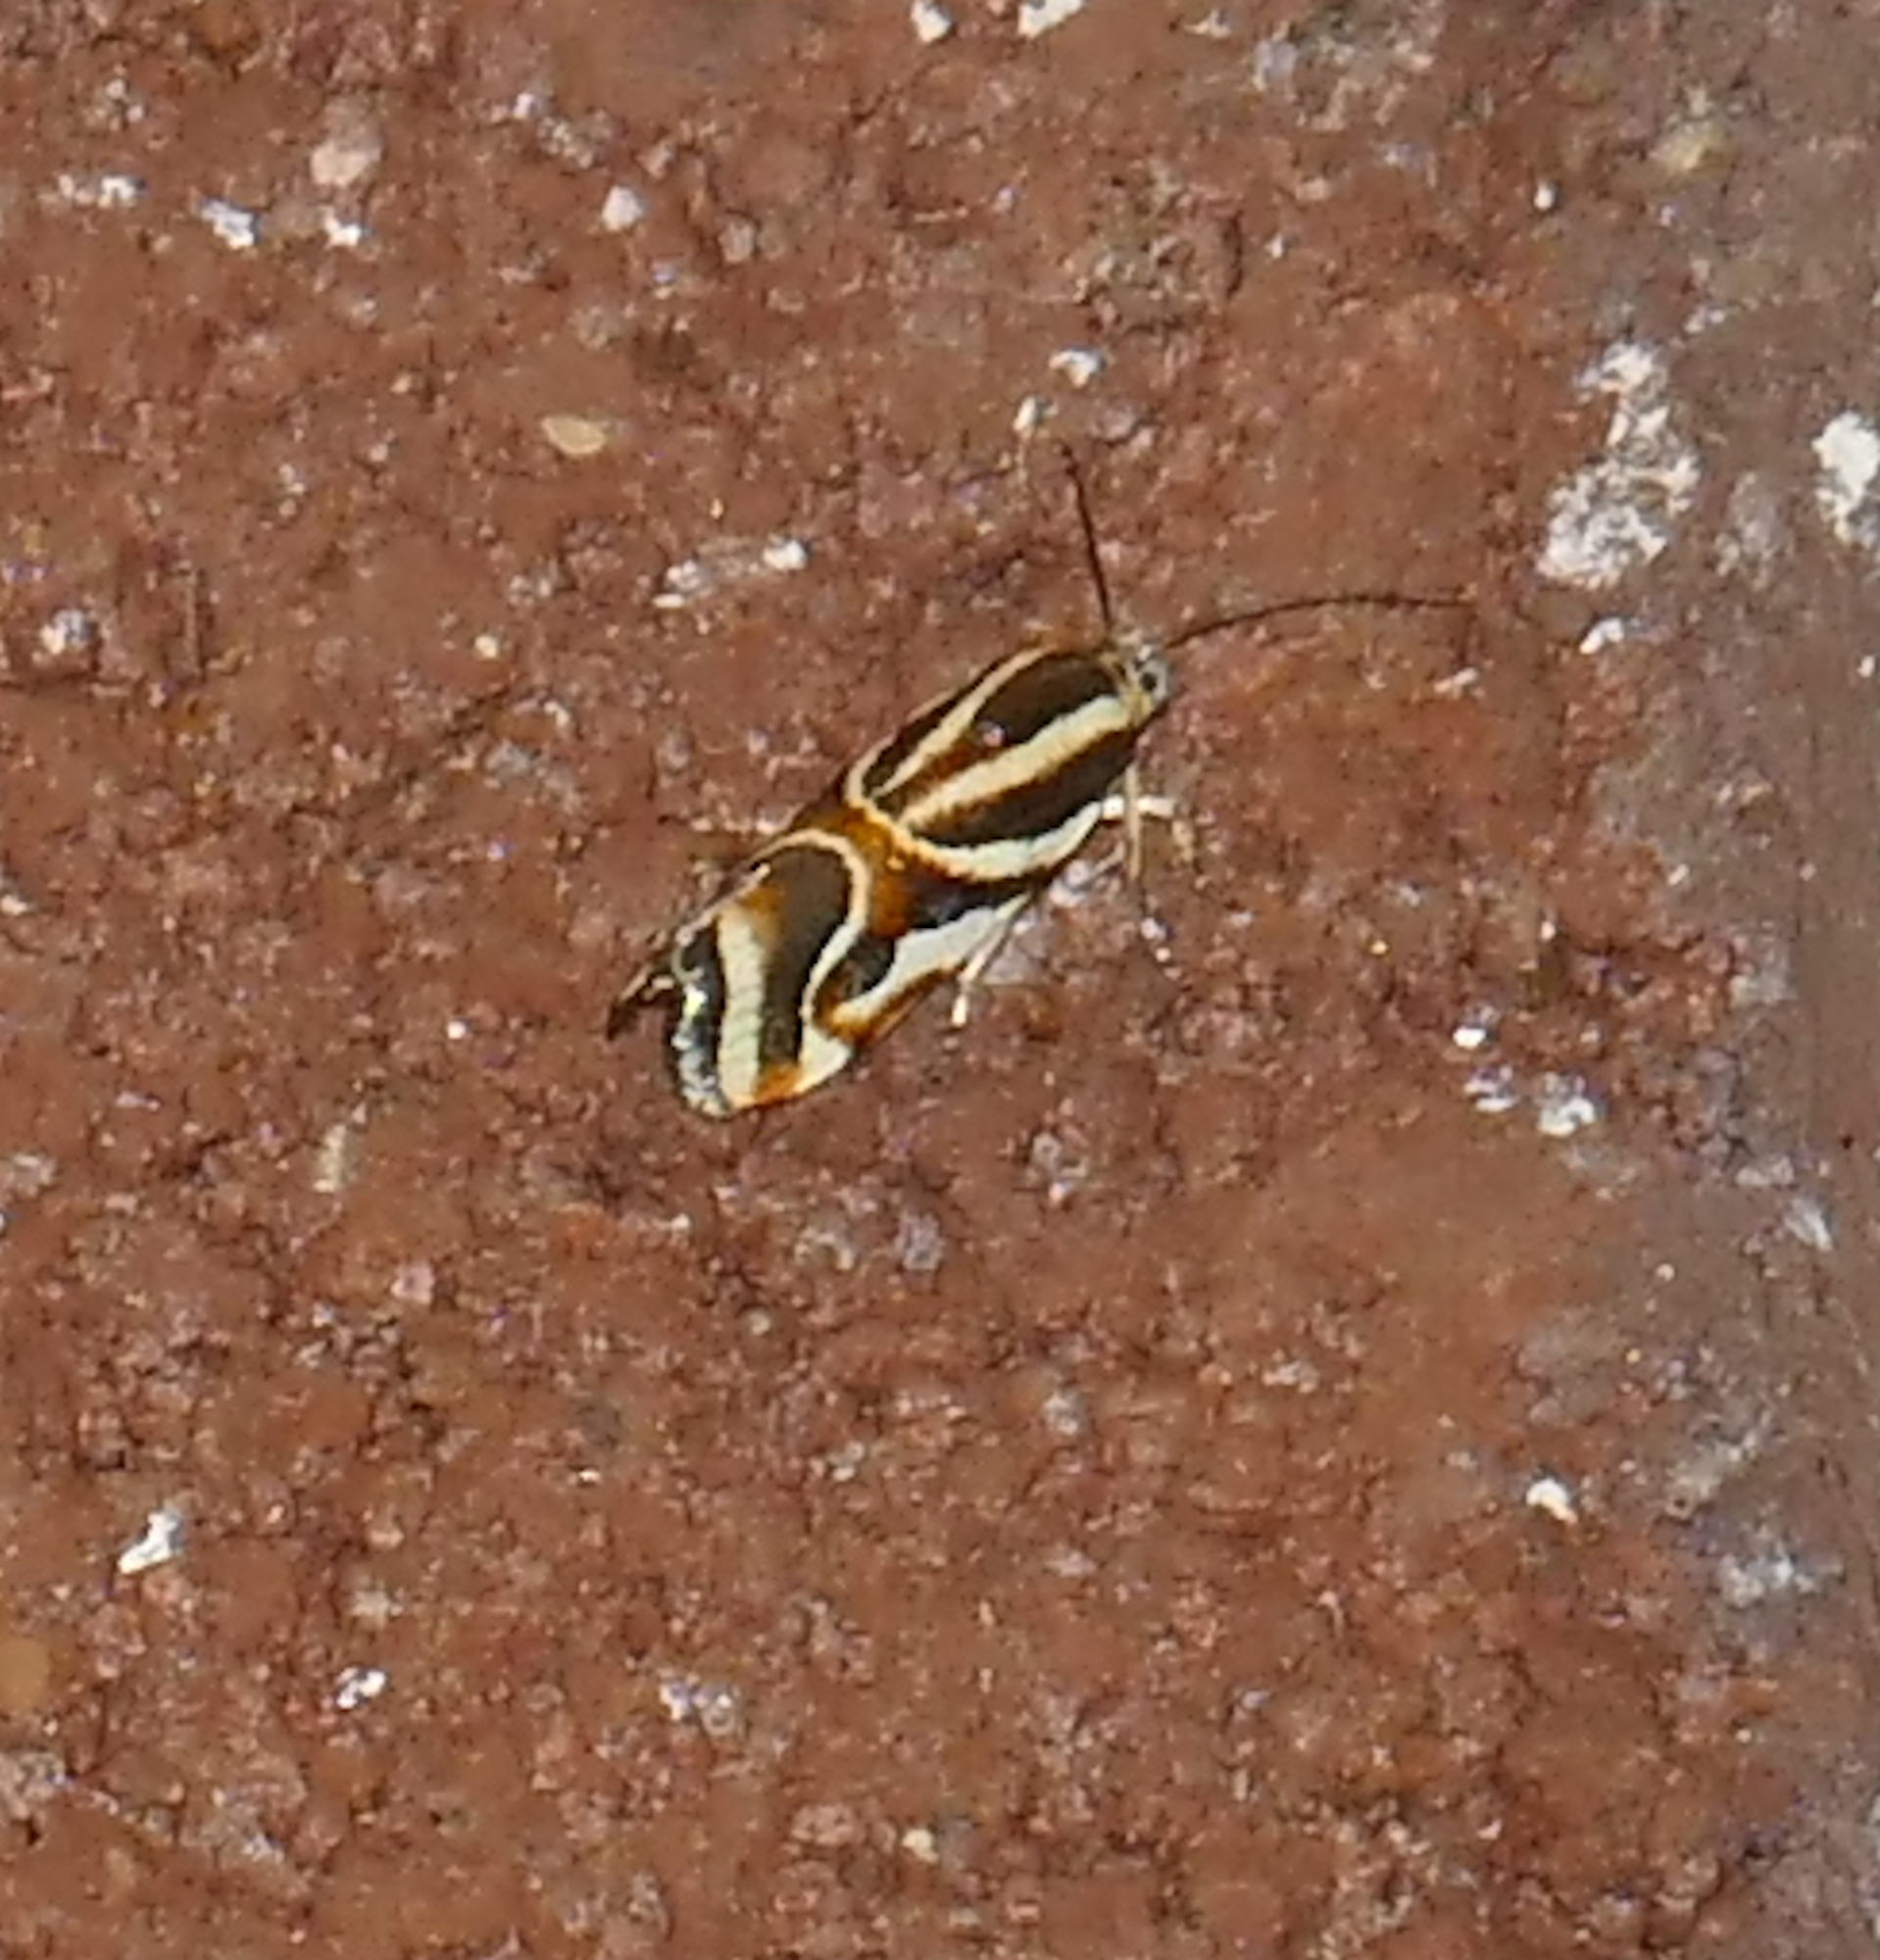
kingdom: Animalia
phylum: Arthropoda
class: Insecta
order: Lepidoptera
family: Noctuidae
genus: Spragueia
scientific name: Spragueia magnifica
